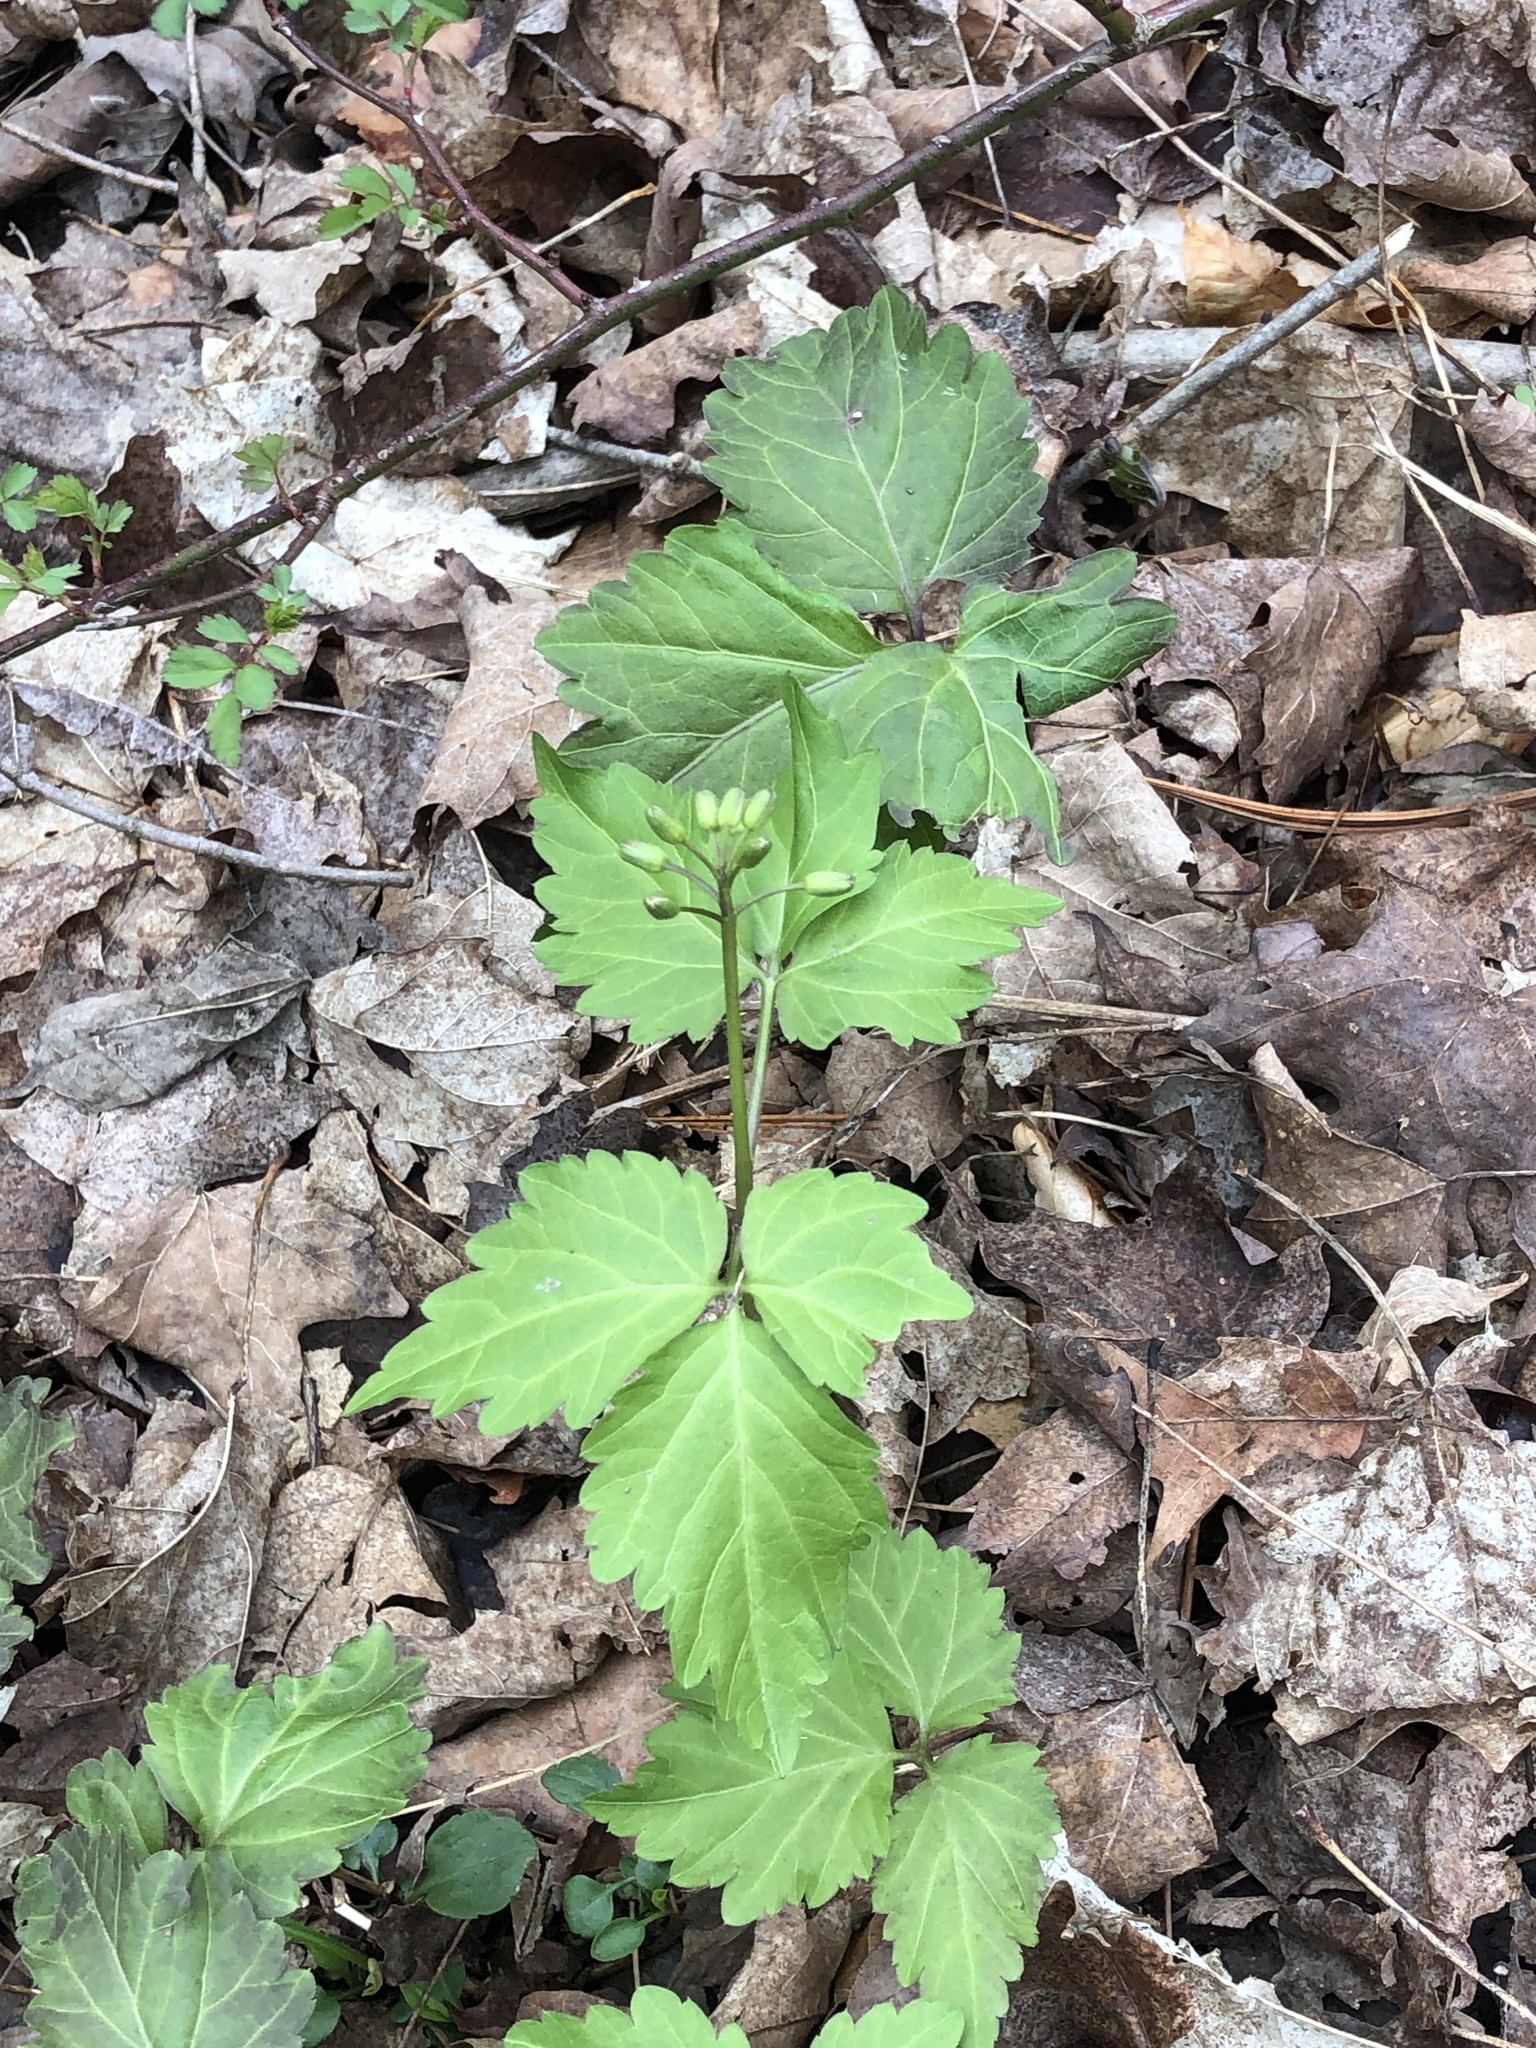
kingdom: Plantae
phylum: Tracheophyta
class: Magnoliopsida
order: Brassicales
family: Brassicaceae
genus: Cardamine
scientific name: Cardamine diphylla
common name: Broad-leaved toothwort
